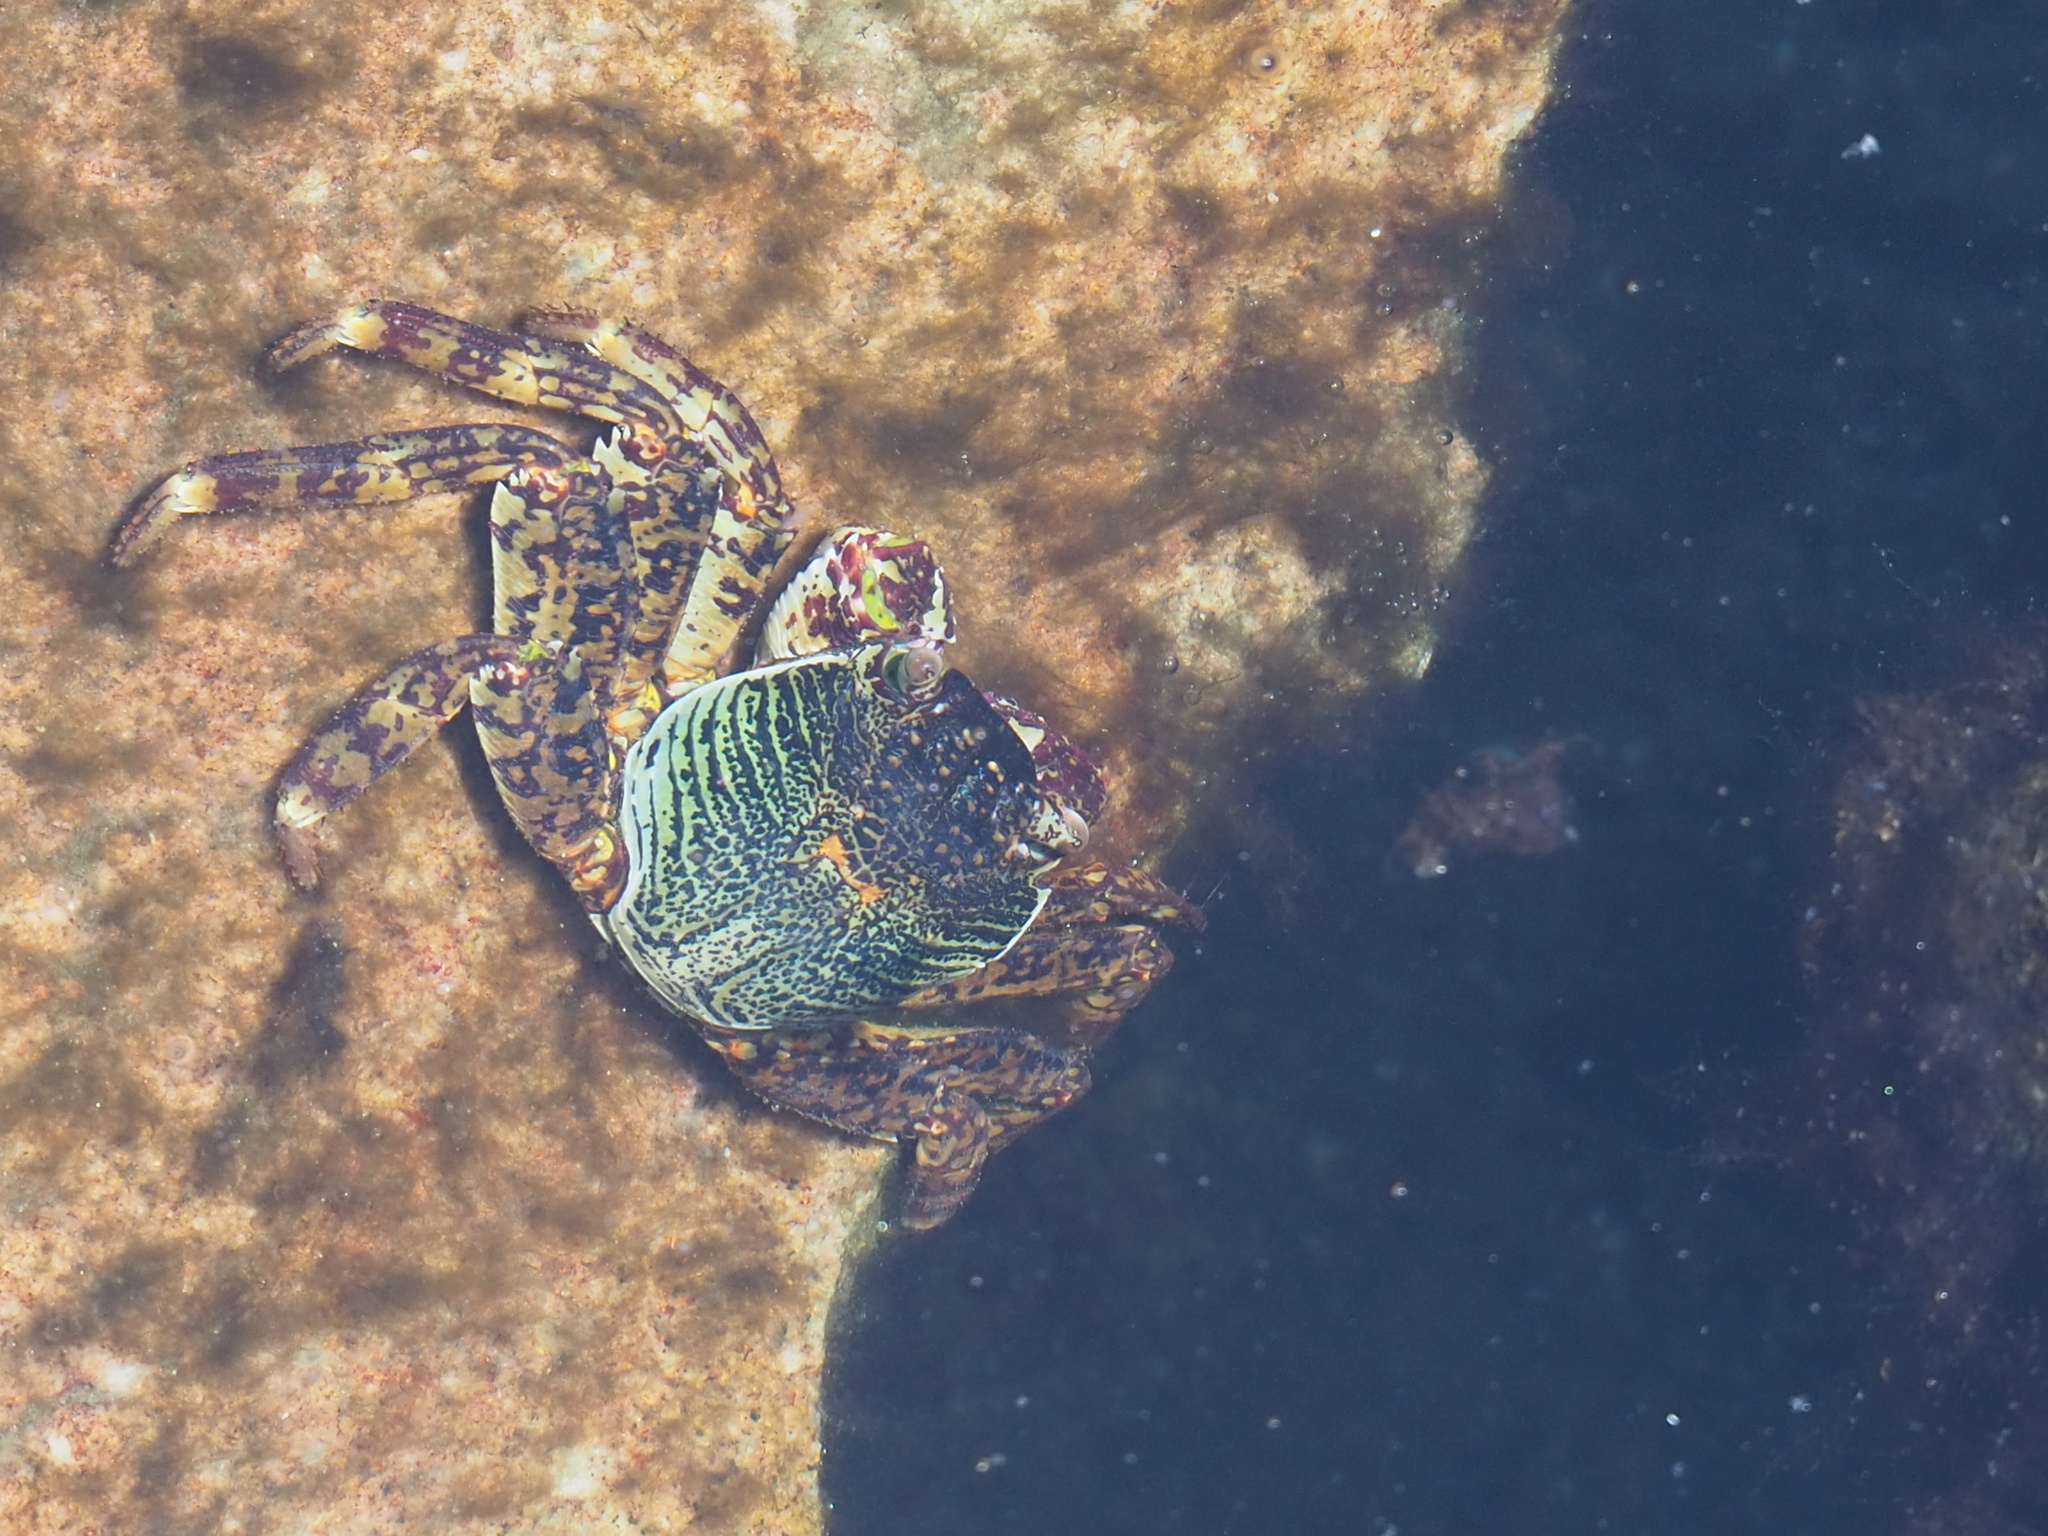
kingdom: Animalia
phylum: Arthropoda
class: Malacostraca
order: Decapoda
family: Grapsidae
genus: Grapsus
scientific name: Grapsus albolineatus
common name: Mottled lightfoot crab
